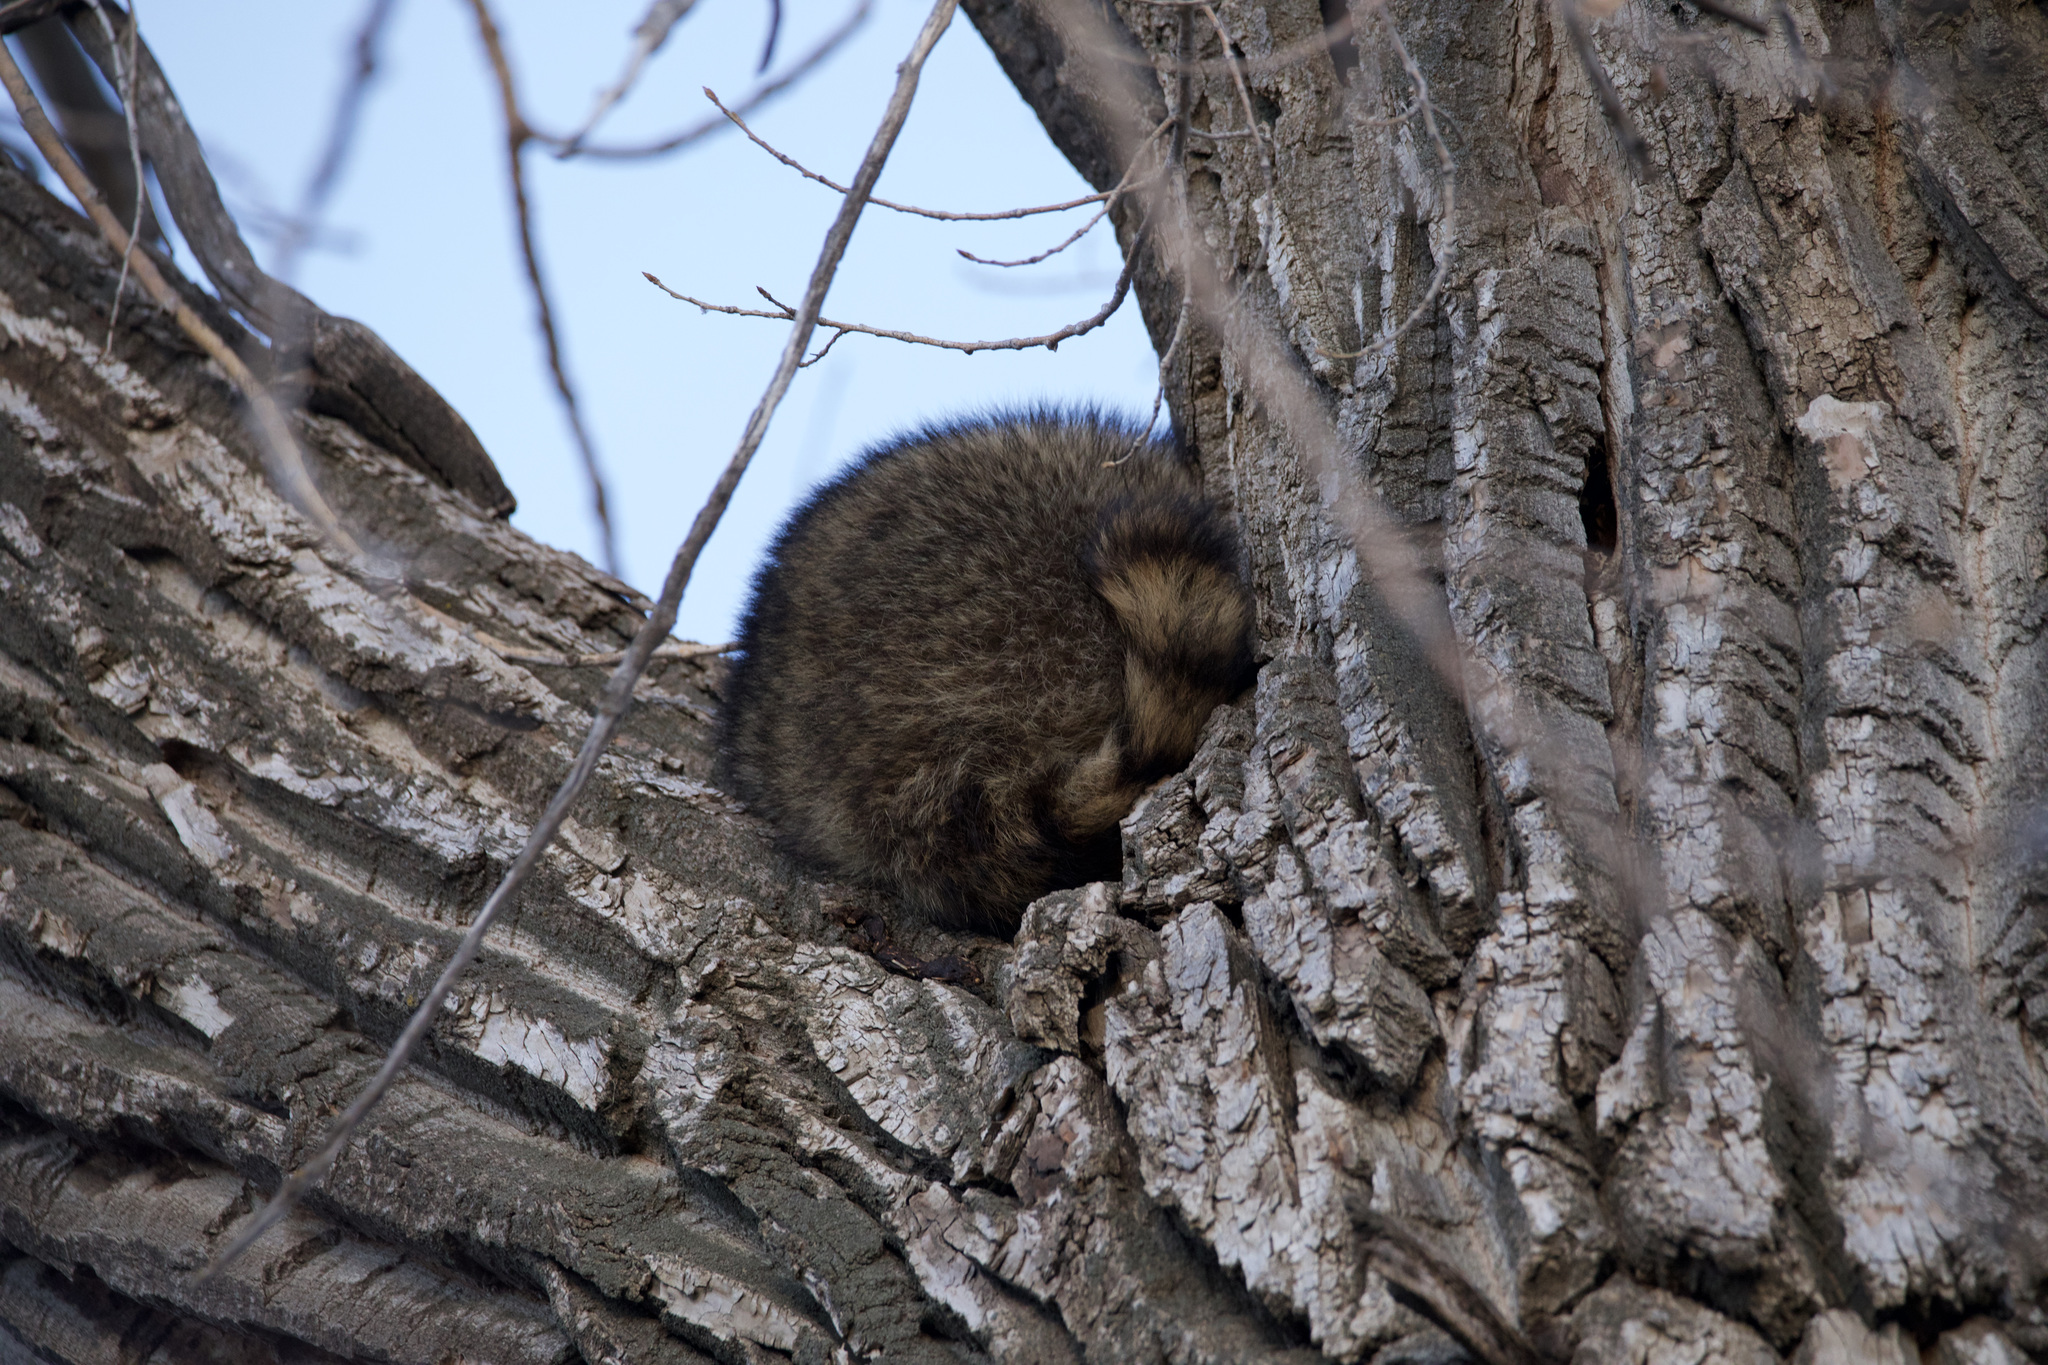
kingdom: Animalia
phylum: Chordata
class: Mammalia
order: Carnivora
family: Procyonidae
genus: Procyon
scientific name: Procyon lotor
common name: Raccoon
